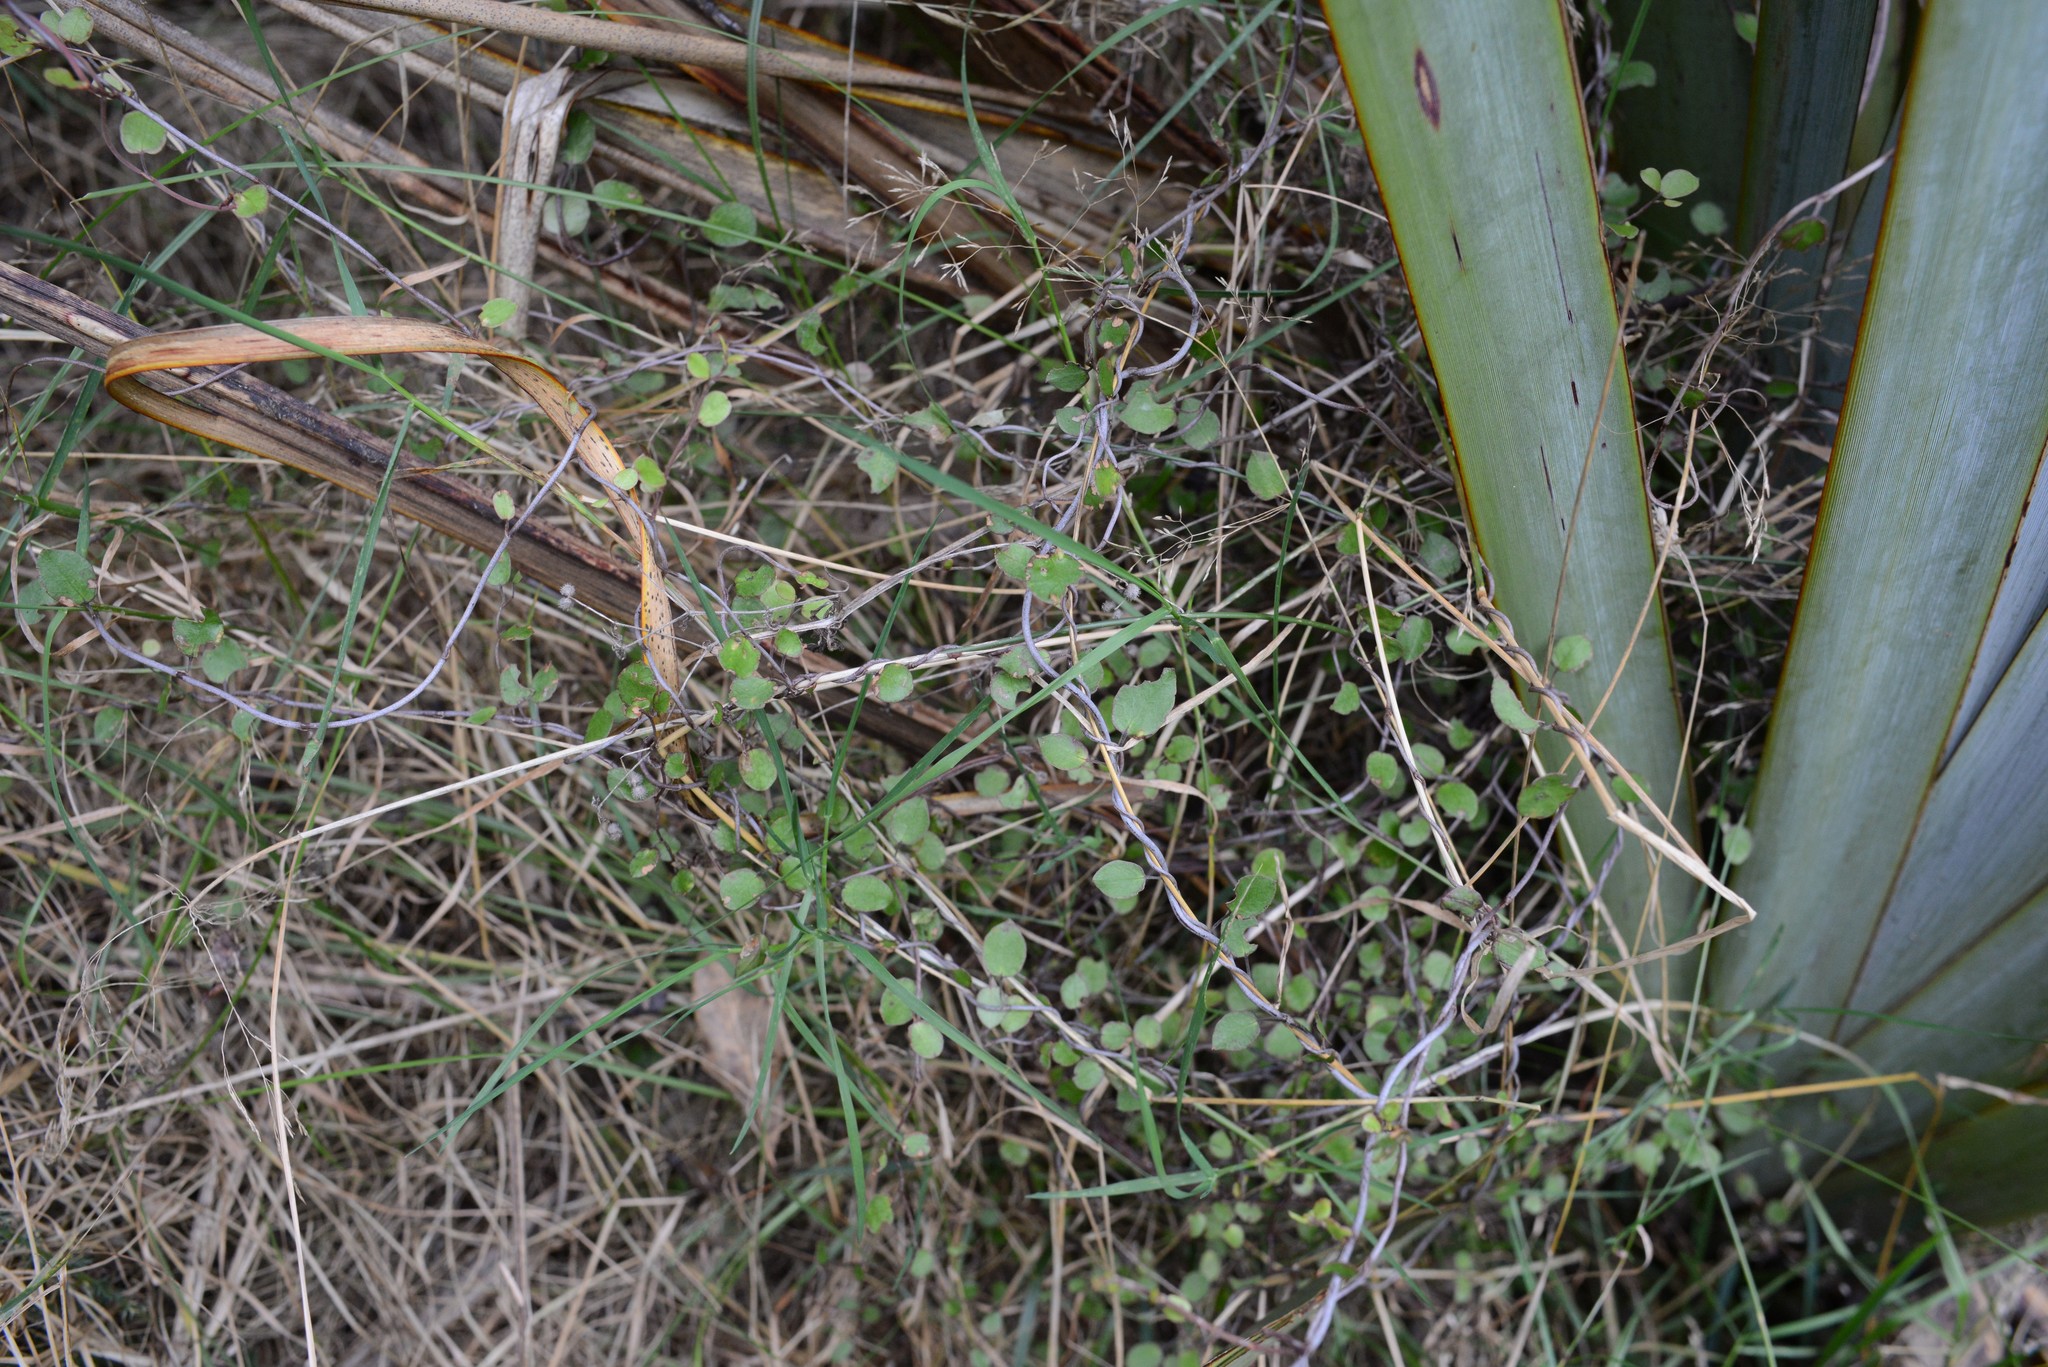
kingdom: Plantae
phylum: Tracheophyta
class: Magnoliopsida
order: Caryophyllales
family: Polygonaceae
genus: Muehlenbeckia
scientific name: Muehlenbeckia complexa
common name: Wireplant
